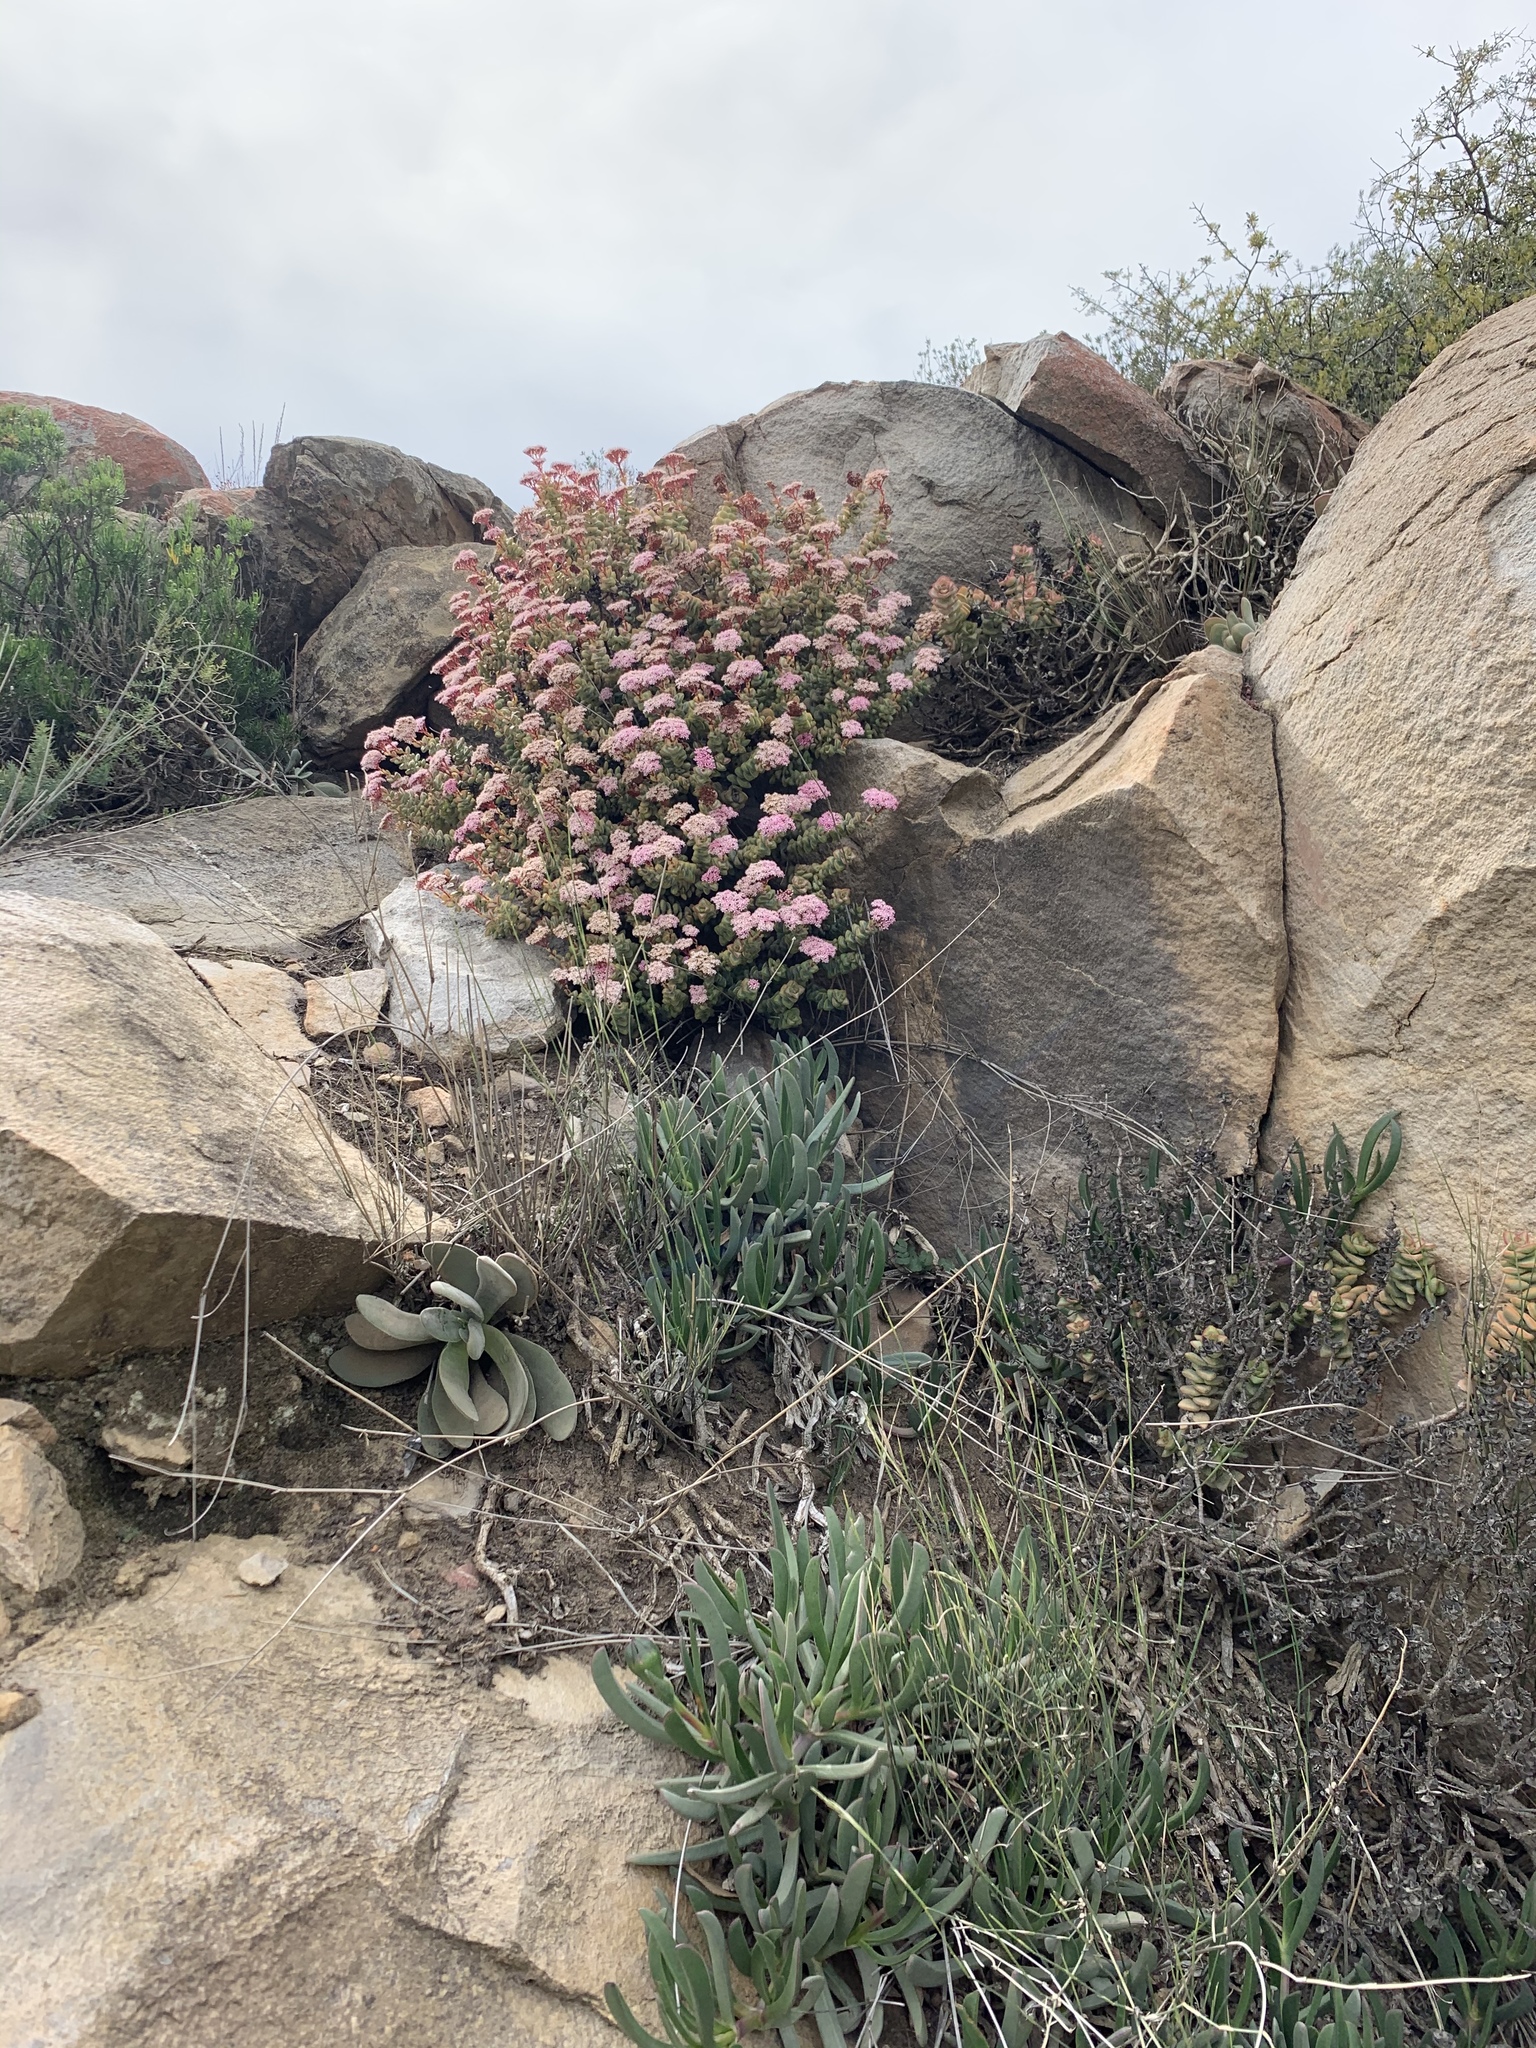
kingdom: Plantae
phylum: Tracheophyta
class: Magnoliopsida
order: Saxifragales
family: Crassulaceae
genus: Crassula
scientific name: Crassula rupestris
